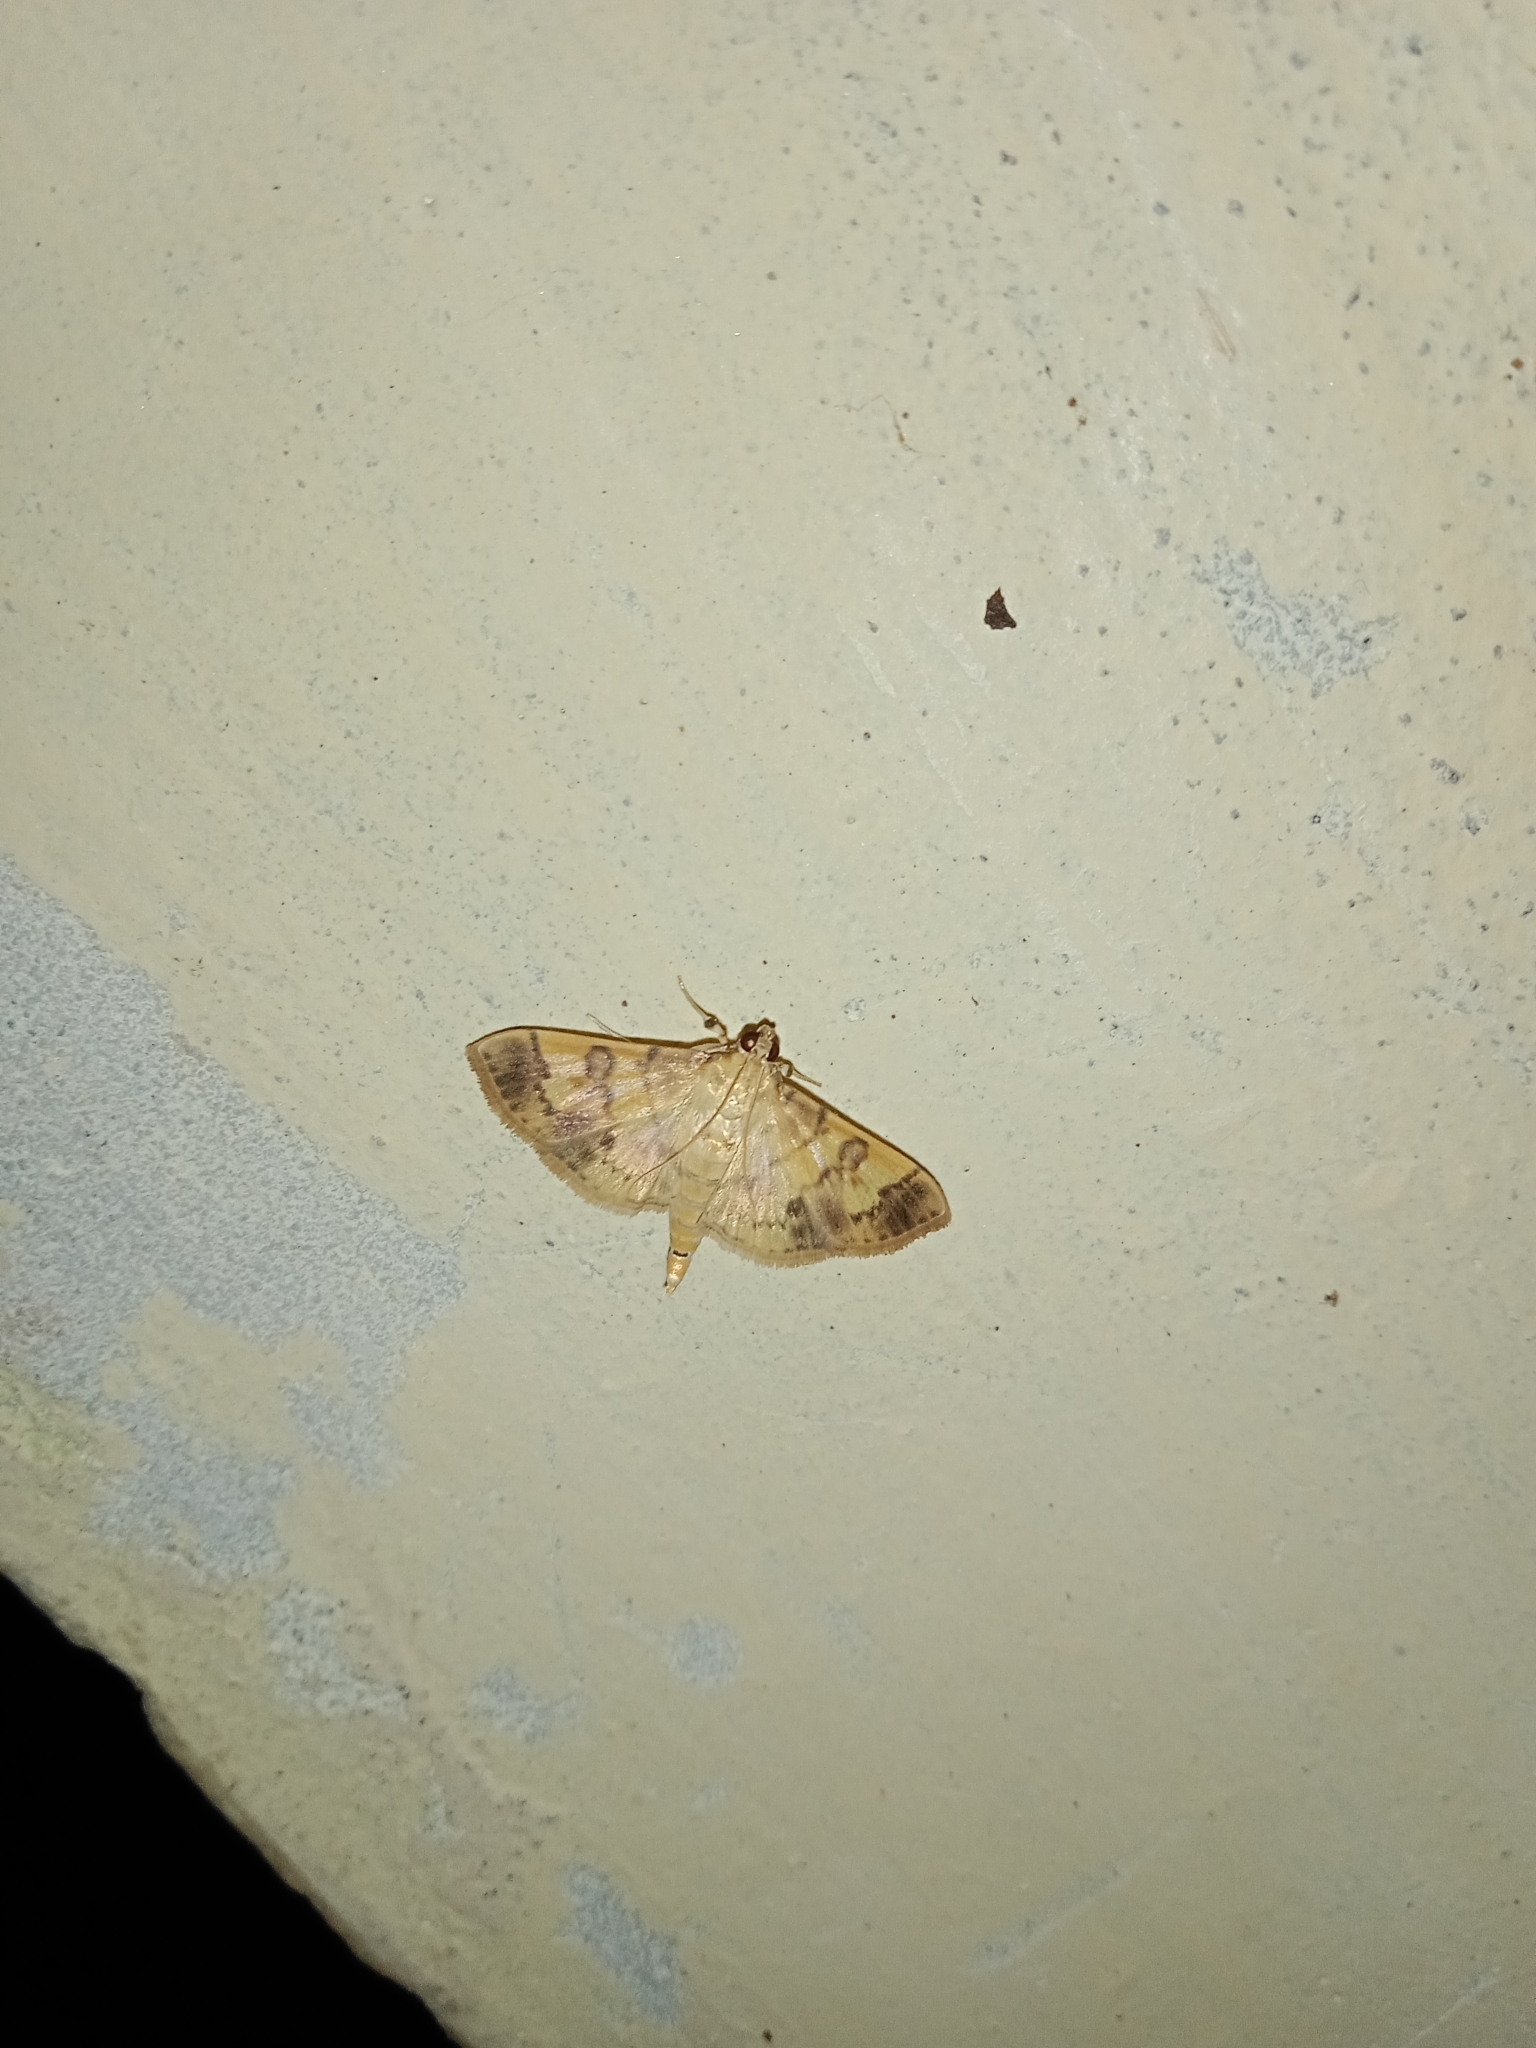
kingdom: Animalia
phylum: Arthropoda
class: Insecta
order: Lepidoptera
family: Crambidae
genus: Patania
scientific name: Patania iopasalis
